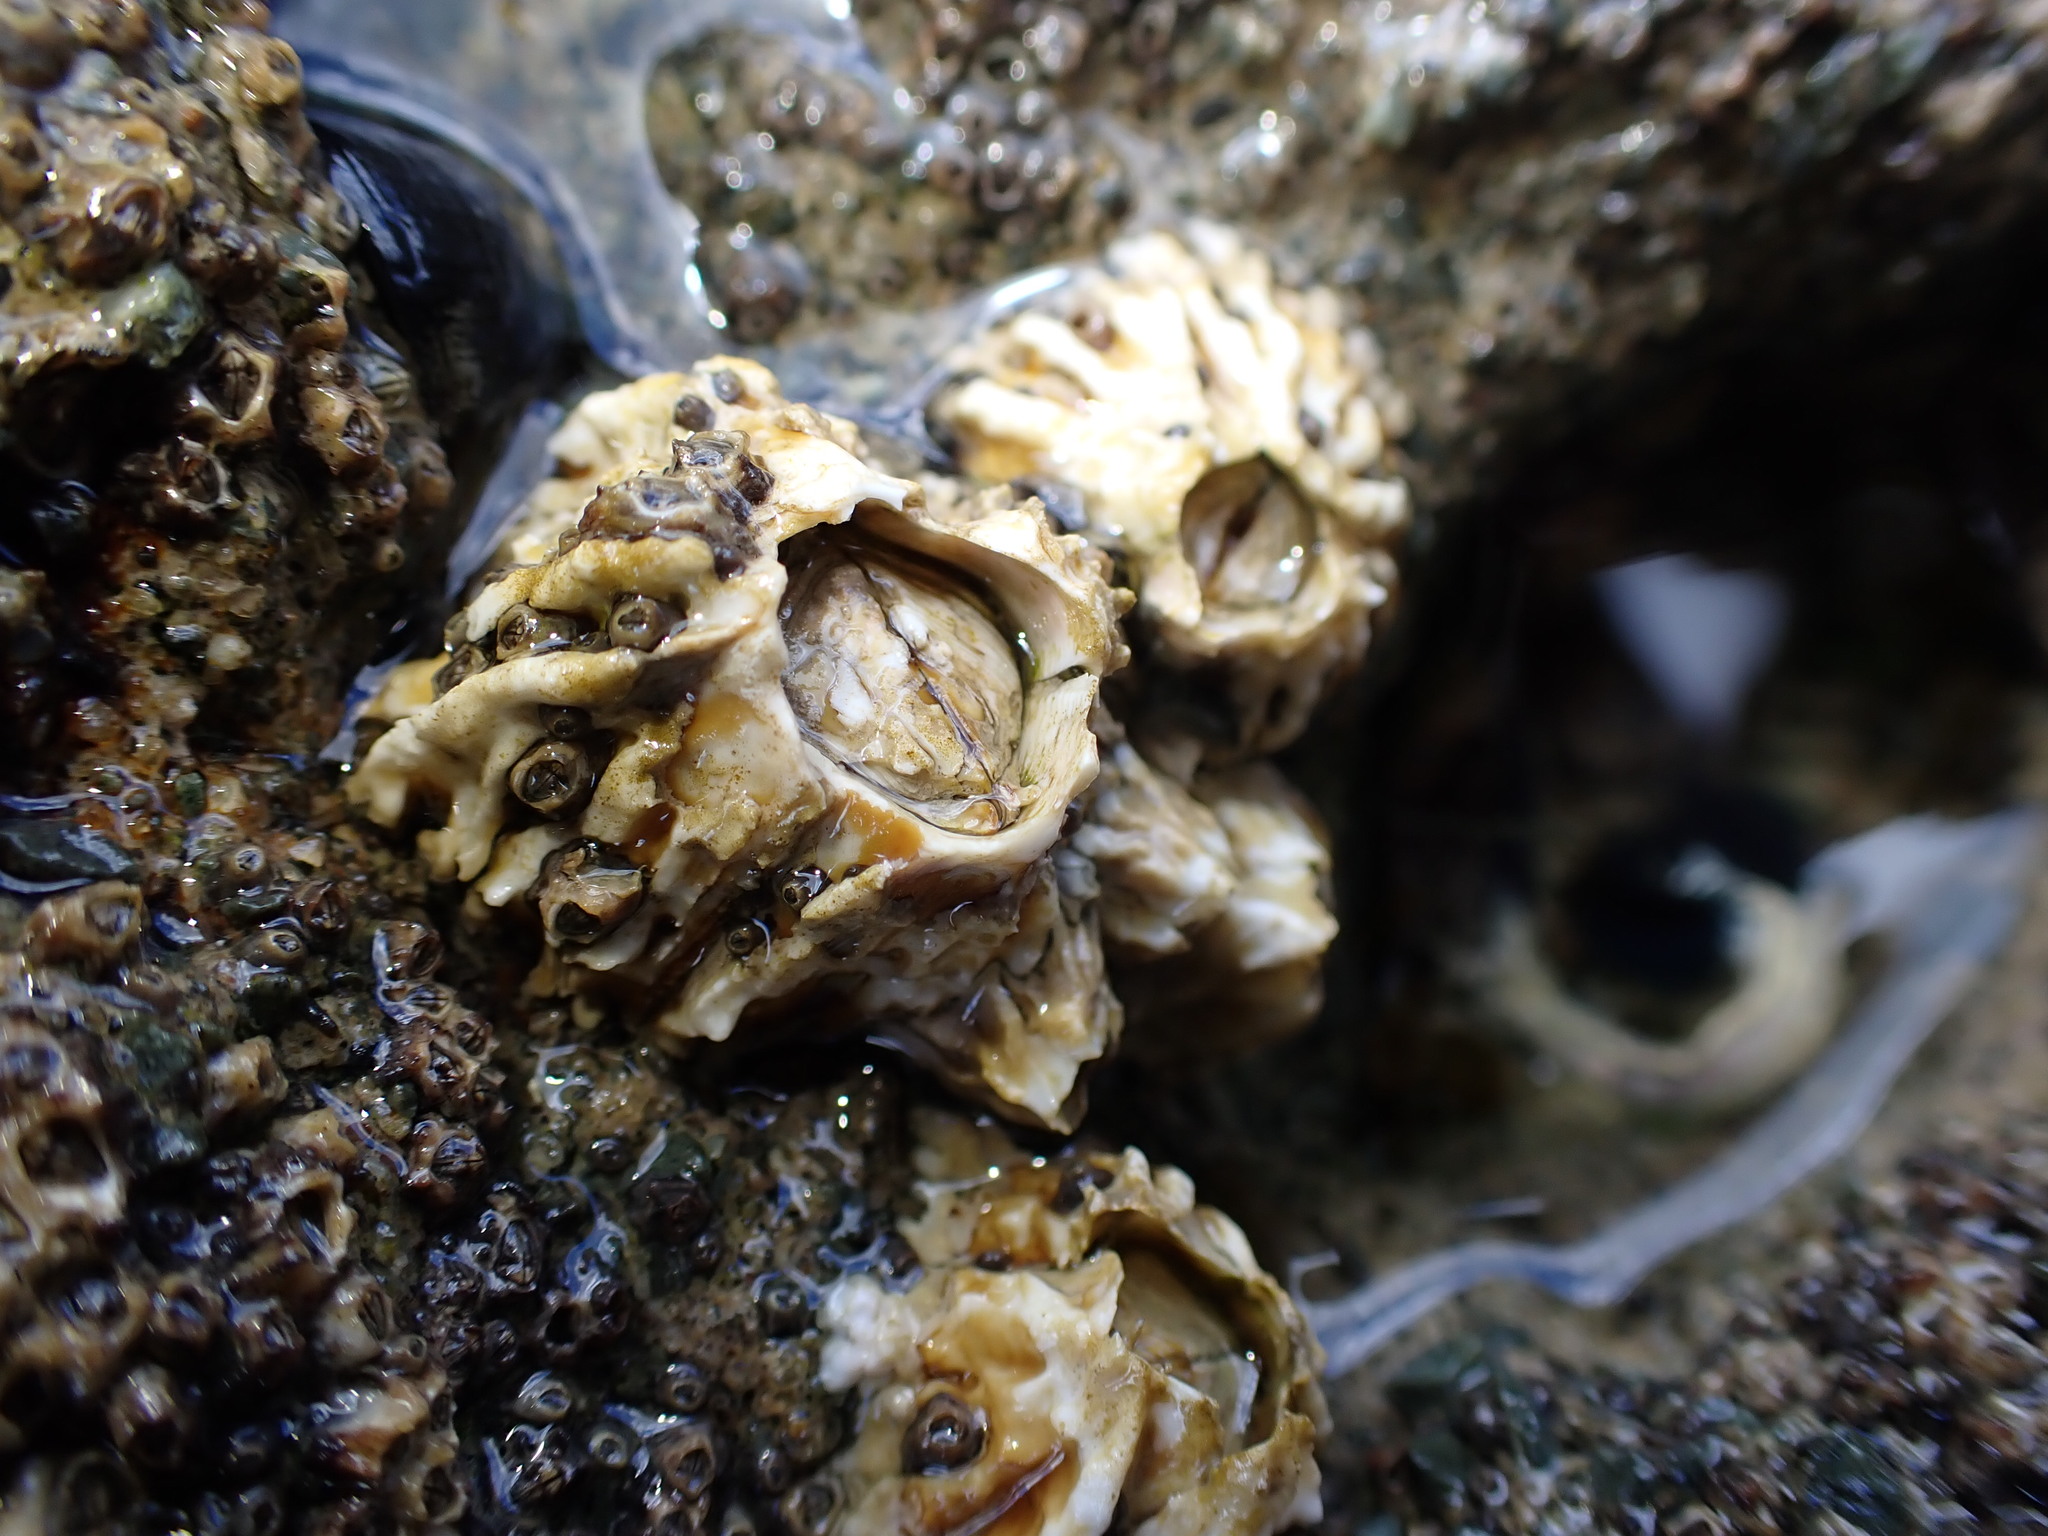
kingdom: Animalia
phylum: Arthropoda
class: Maxillopoda
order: Sessilia
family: Tetraclitidae
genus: Epopella
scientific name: Epopella plicata
